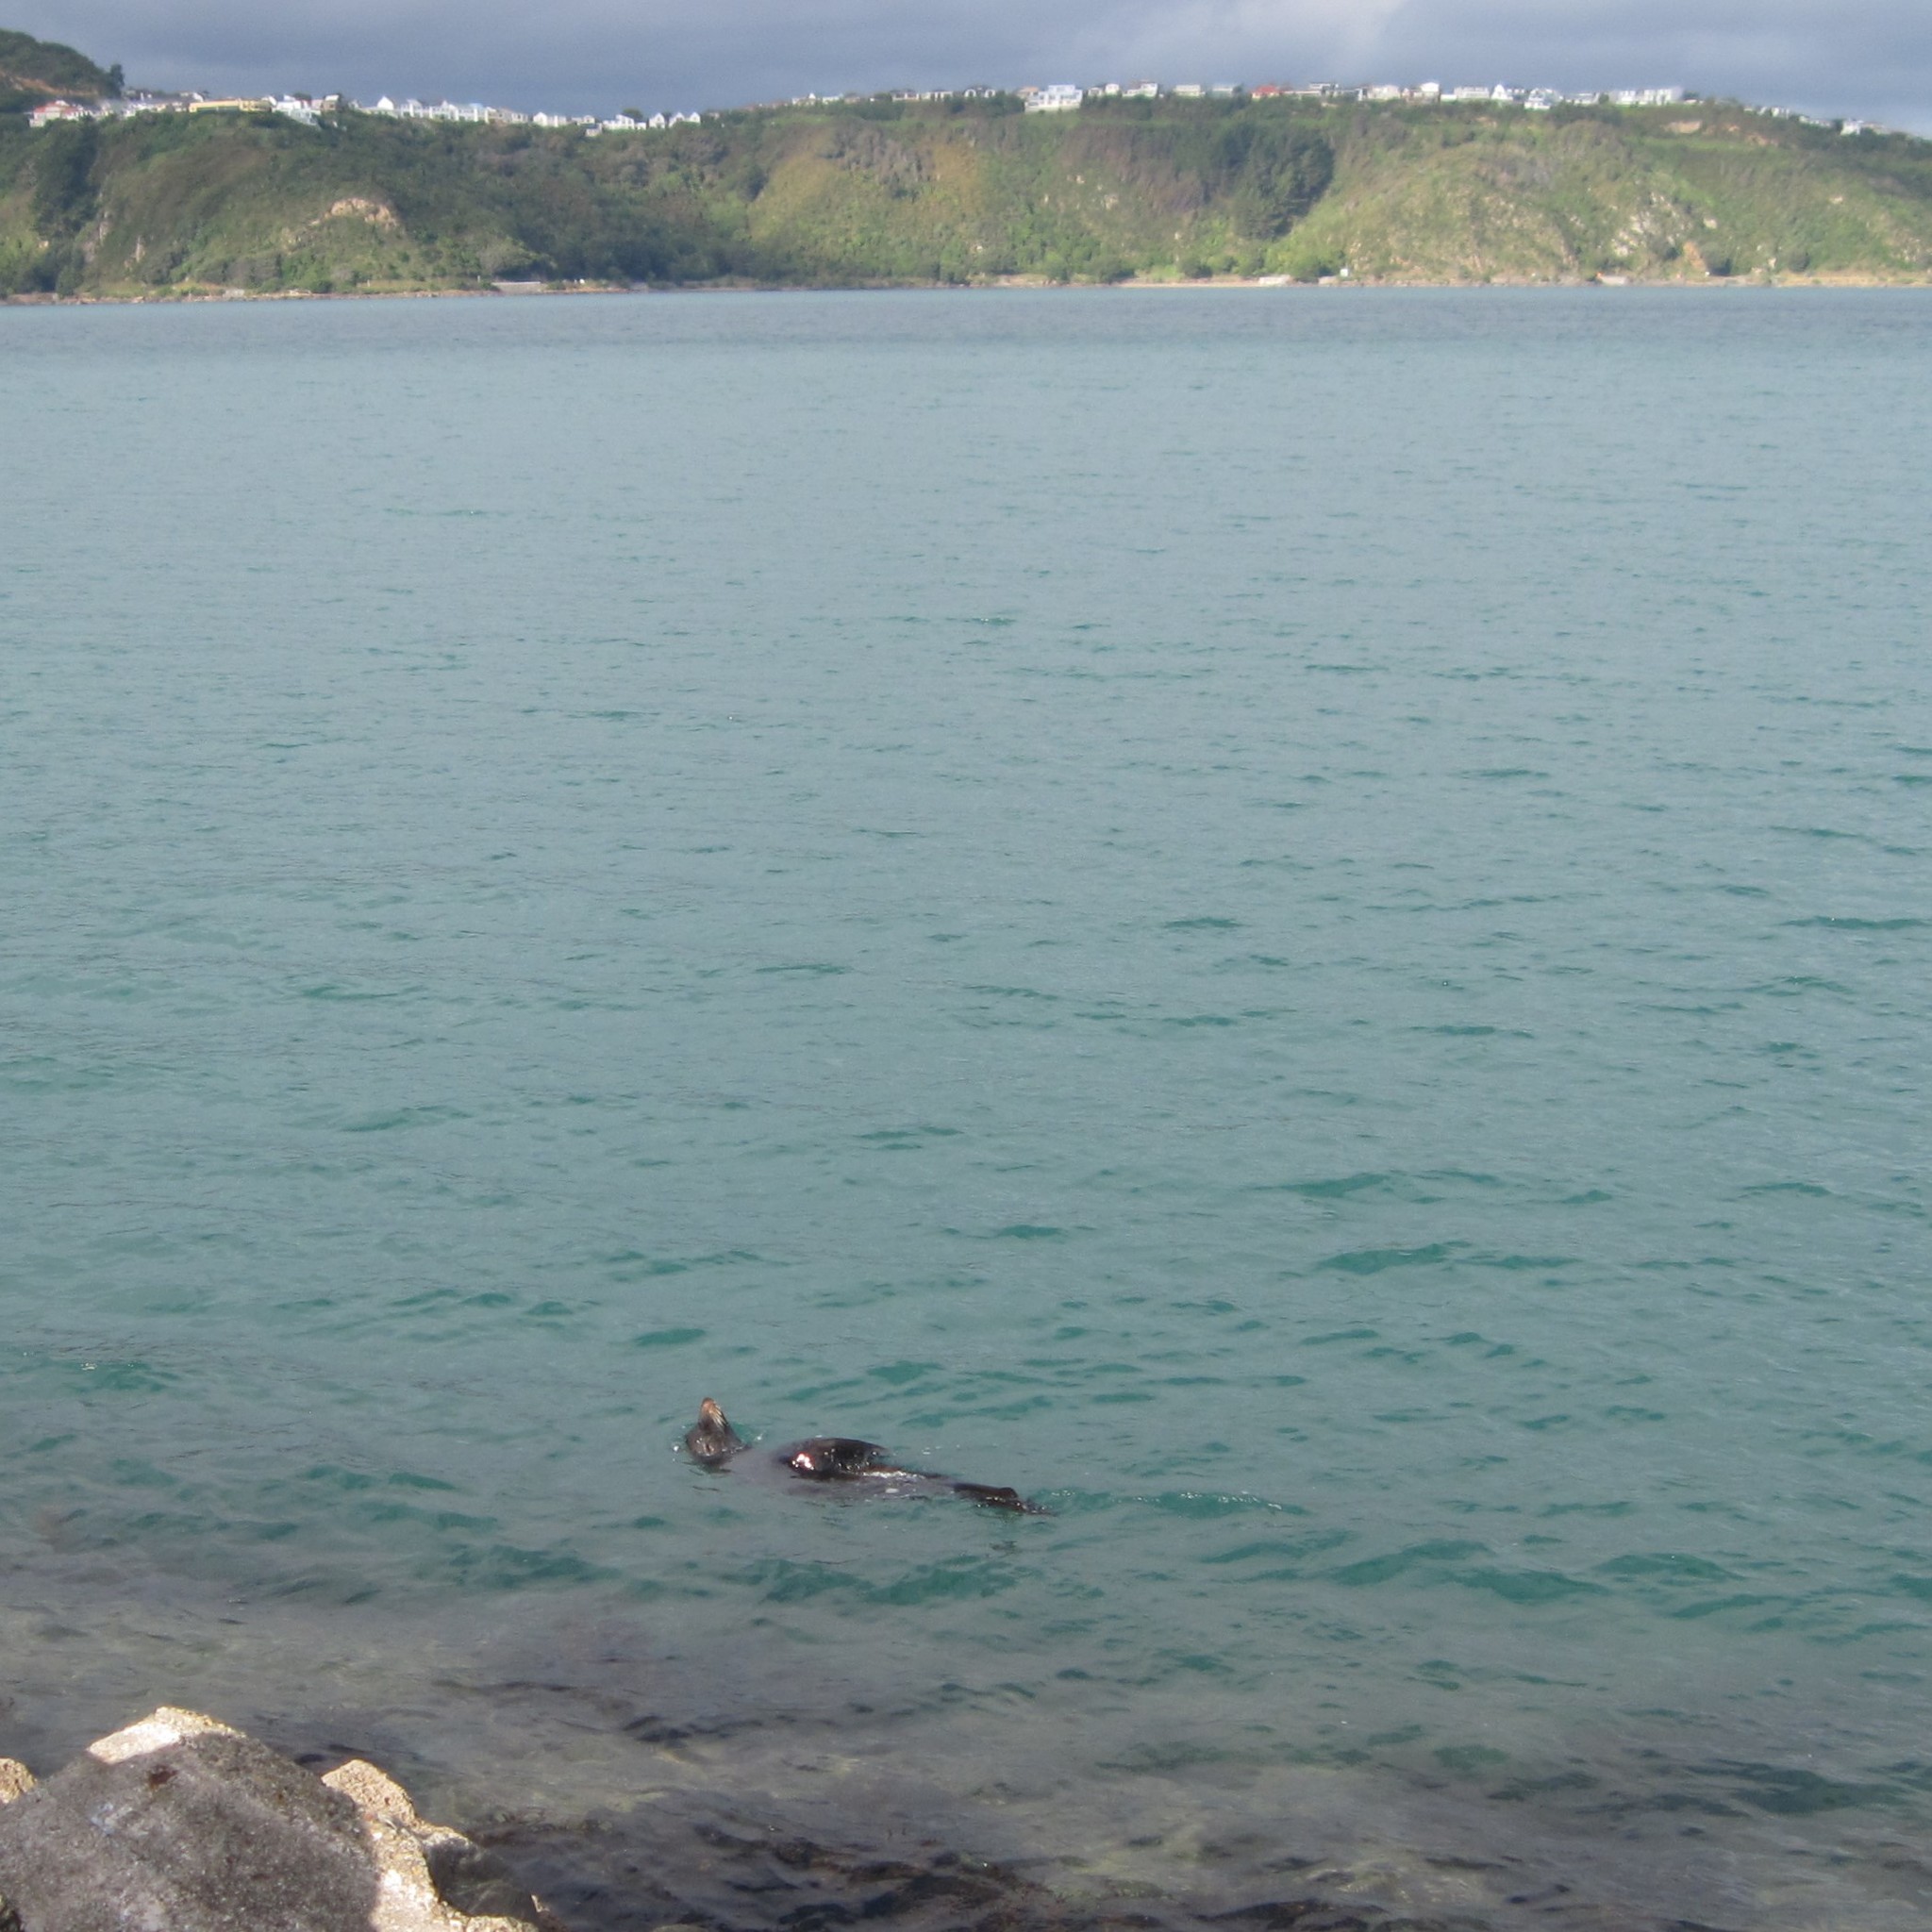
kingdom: Animalia
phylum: Chordata
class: Mammalia
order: Carnivora
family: Otariidae
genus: Arctocephalus
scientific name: Arctocephalus forsteri
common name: New zealand fur seal
